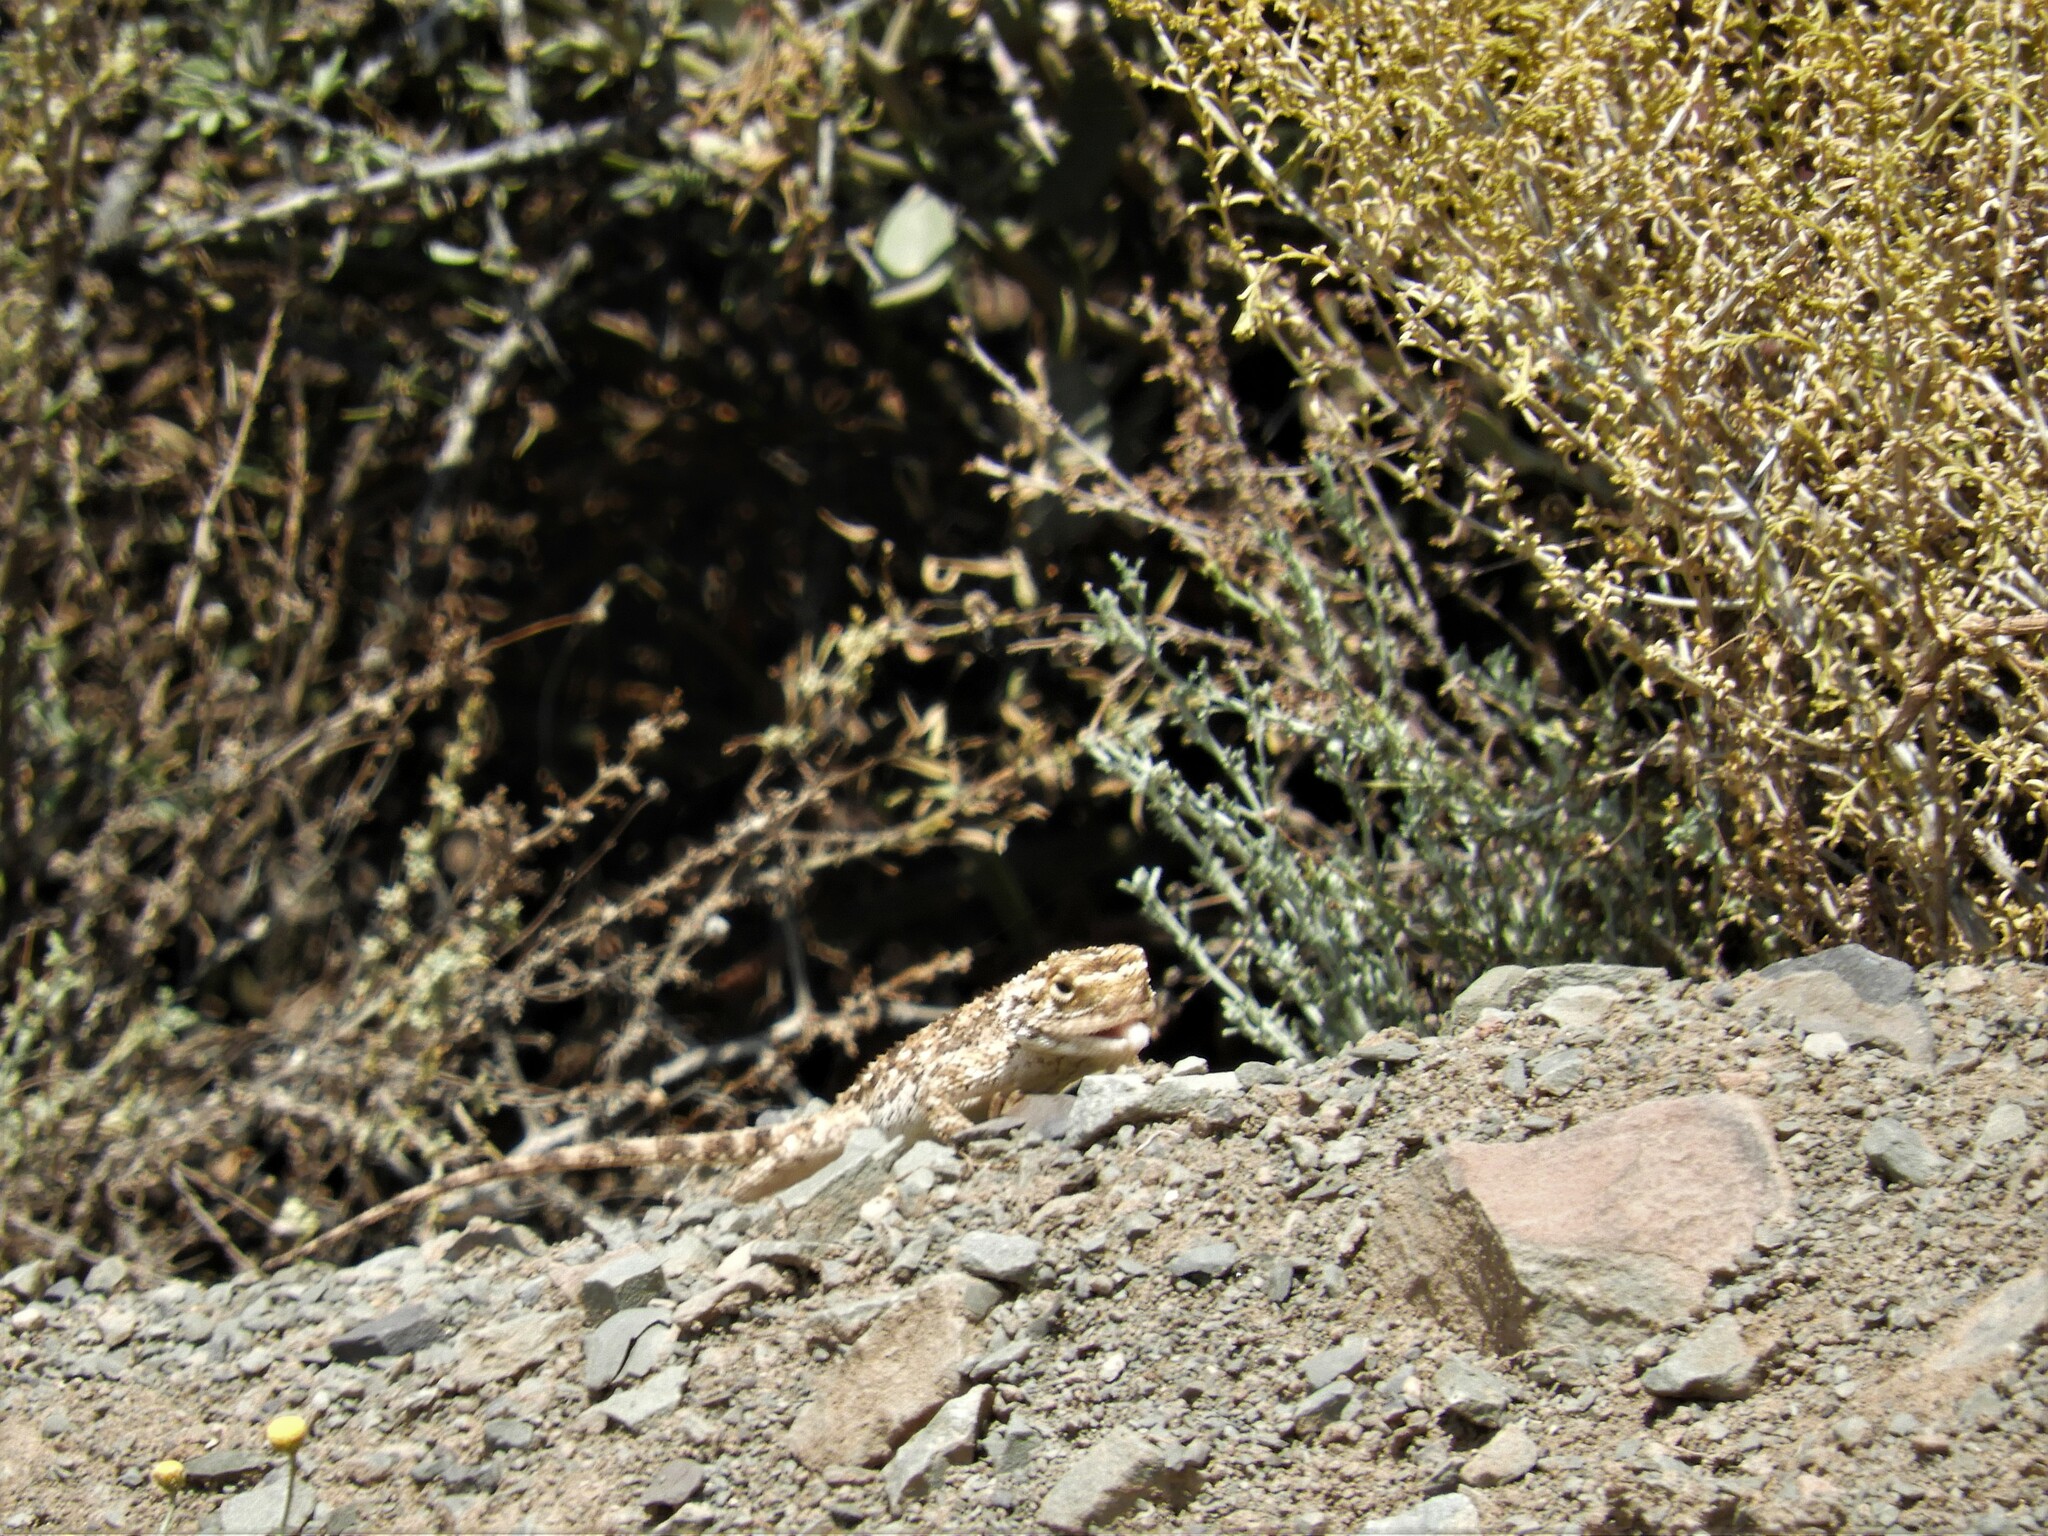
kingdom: Animalia
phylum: Chordata
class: Squamata
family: Agamidae
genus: Agama
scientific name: Agama aculeata
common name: Common ground agama
